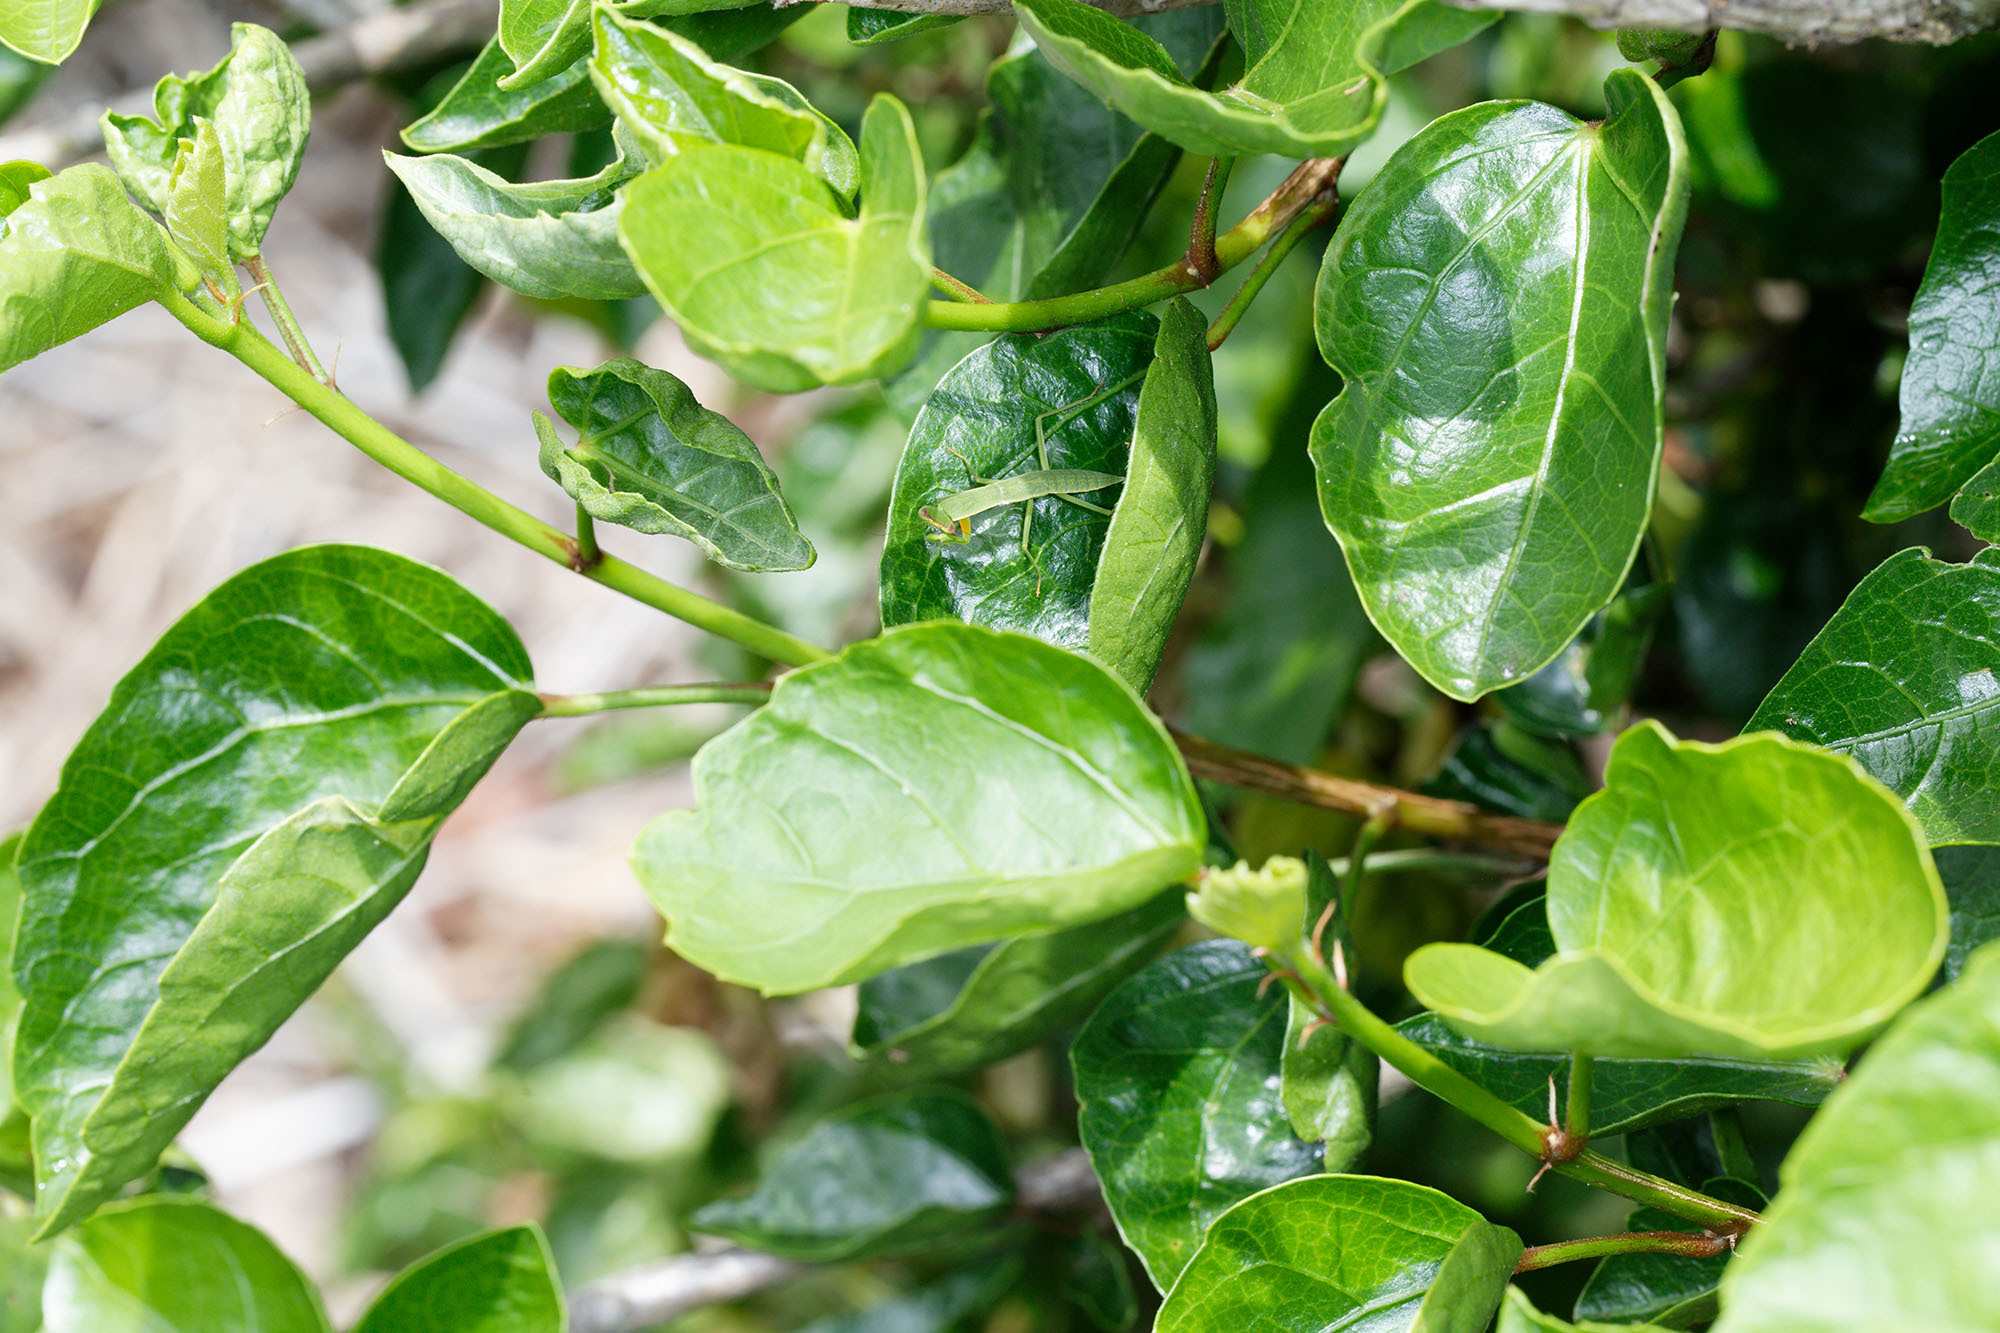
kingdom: Animalia
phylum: Arthropoda
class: Insecta
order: Mantodea
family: Mantidae
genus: Orthodera
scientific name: Orthodera novaezealandiae
